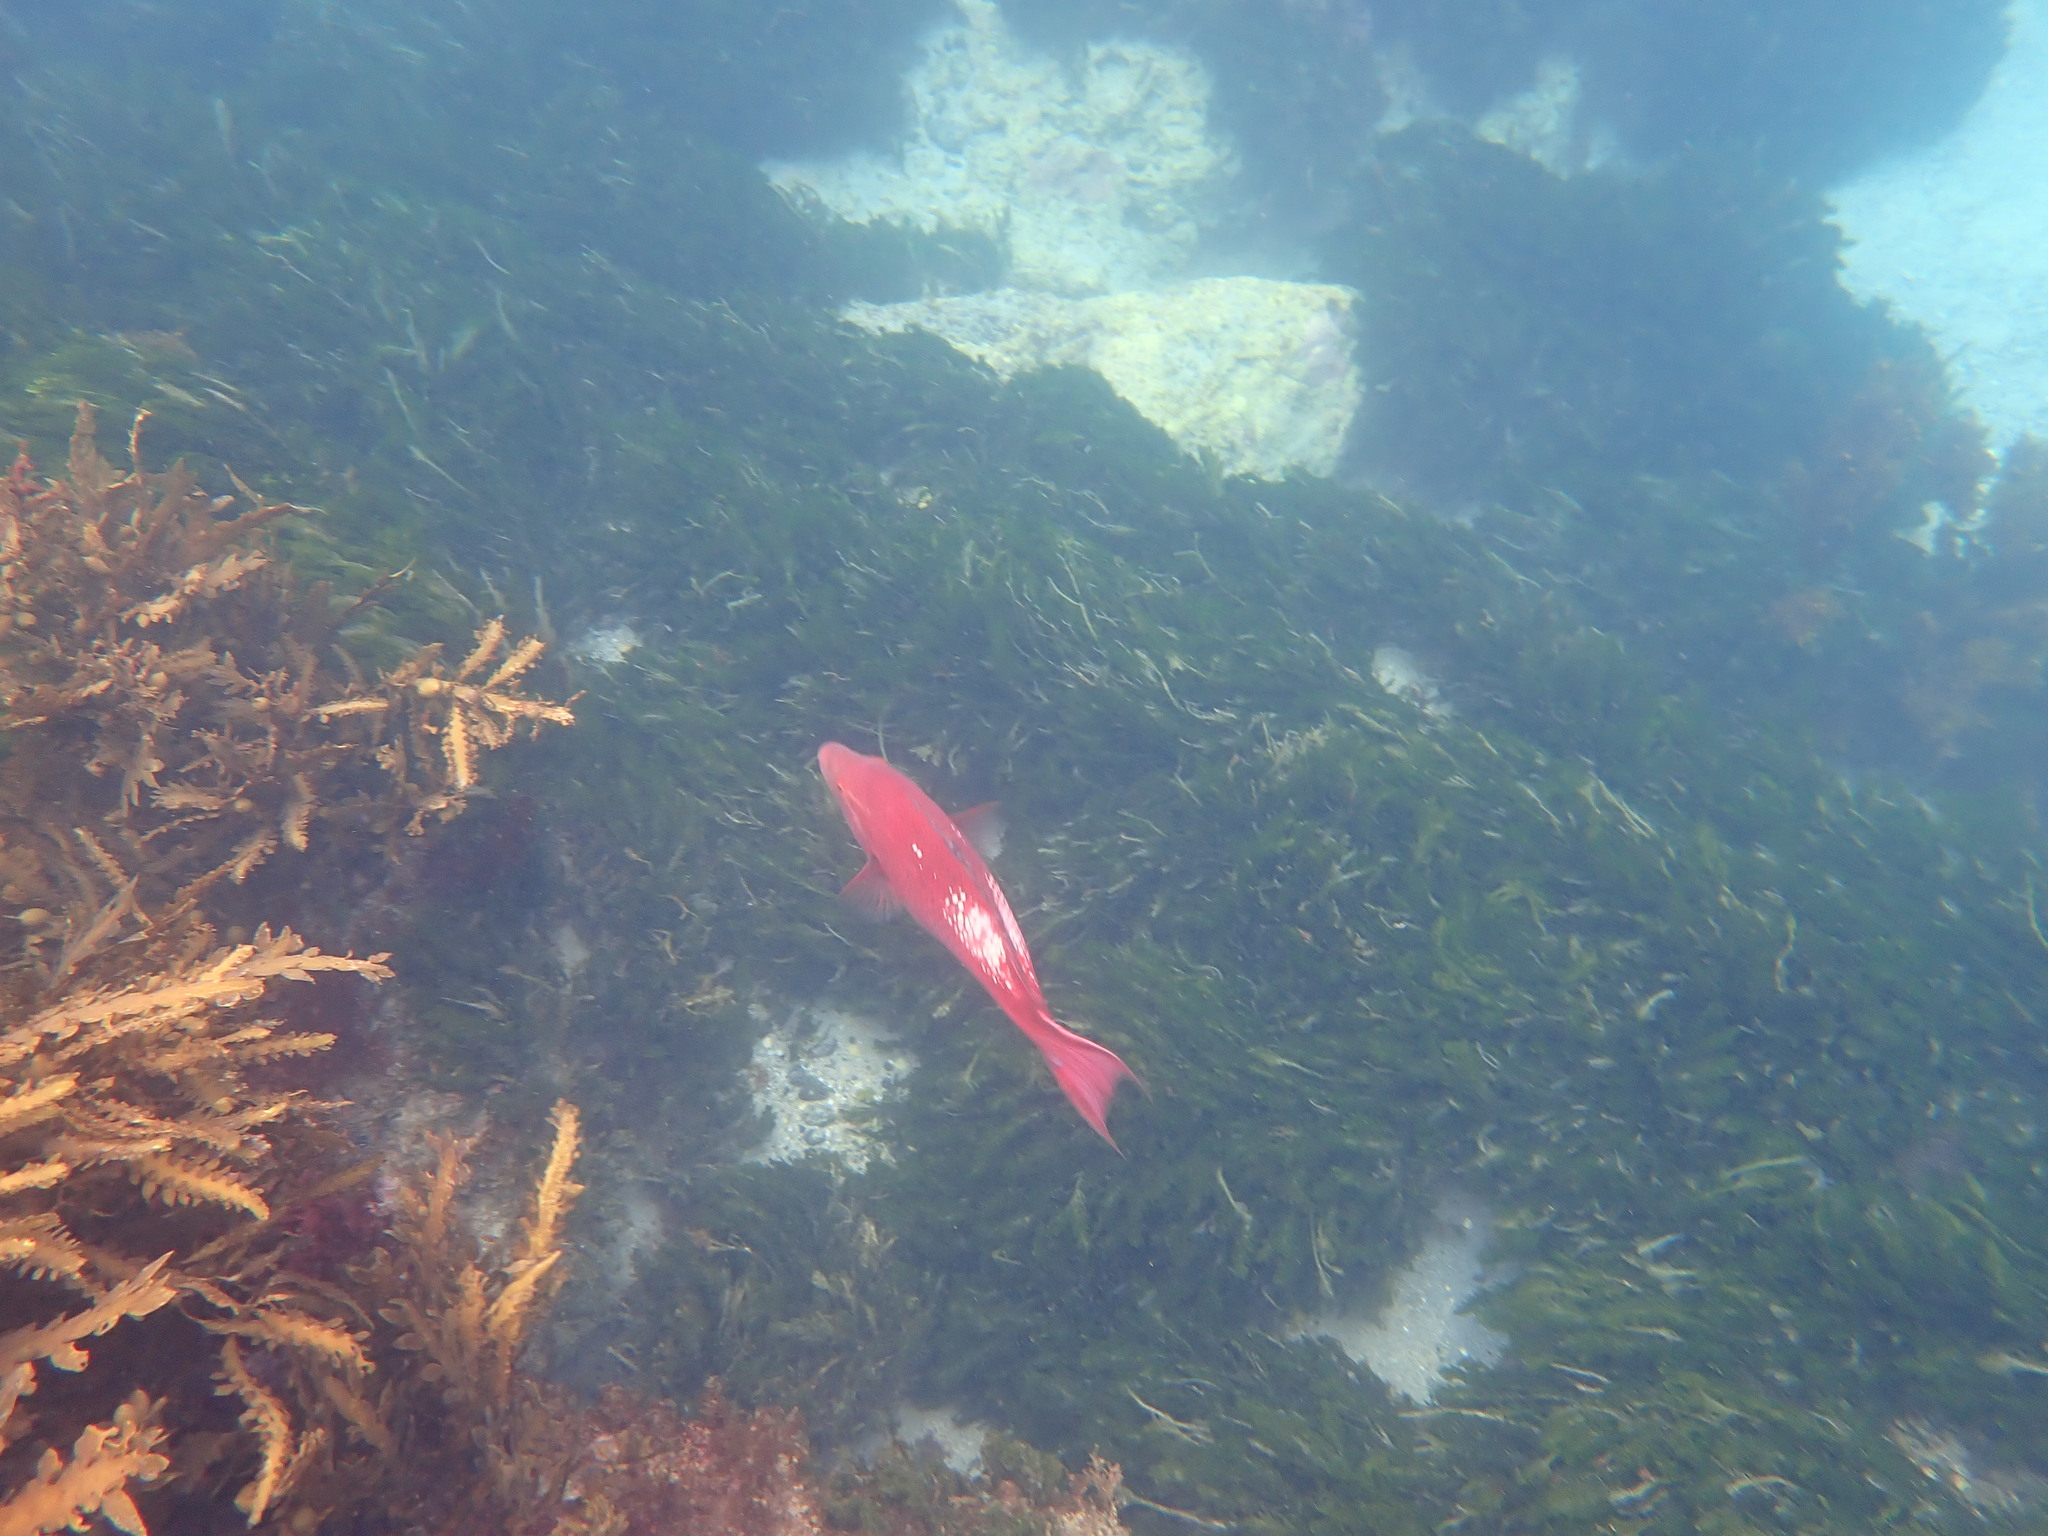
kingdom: Animalia
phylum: Chordata
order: Perciformes
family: Labridae
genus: Bodianus
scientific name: Bodianus unimaculatus
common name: Pigfish
